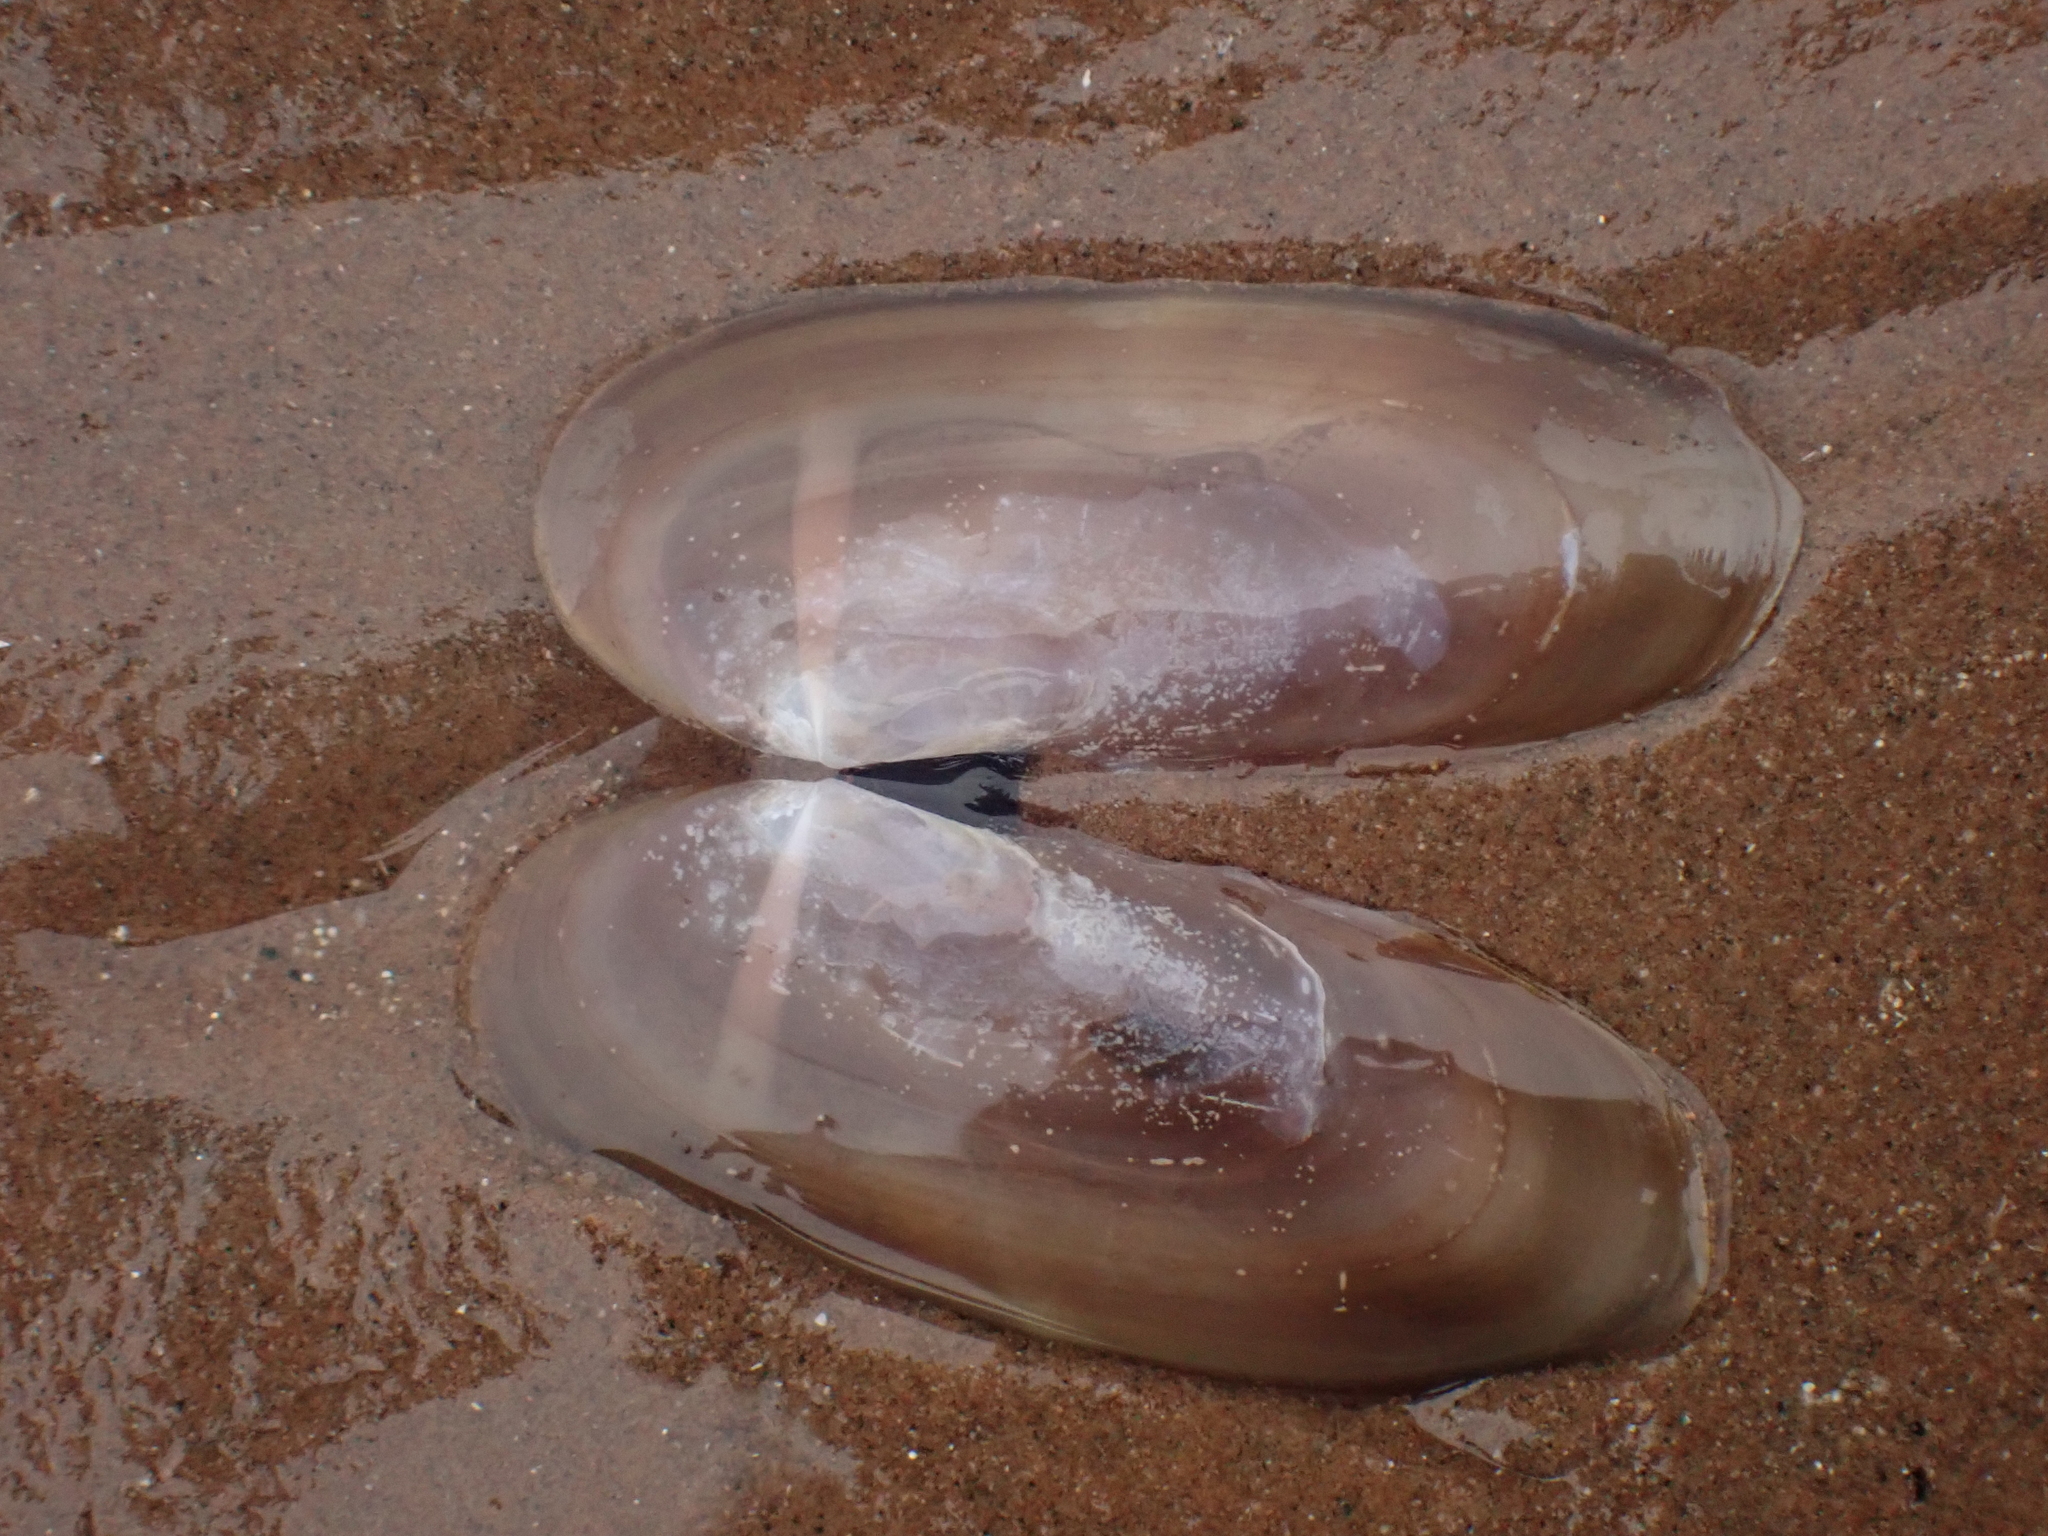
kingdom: Animalia
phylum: Mollusca
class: Bivalvia
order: Adapedonta
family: Pharidae
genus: Siliqua
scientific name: Siliqua costata
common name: Atlantic razor
